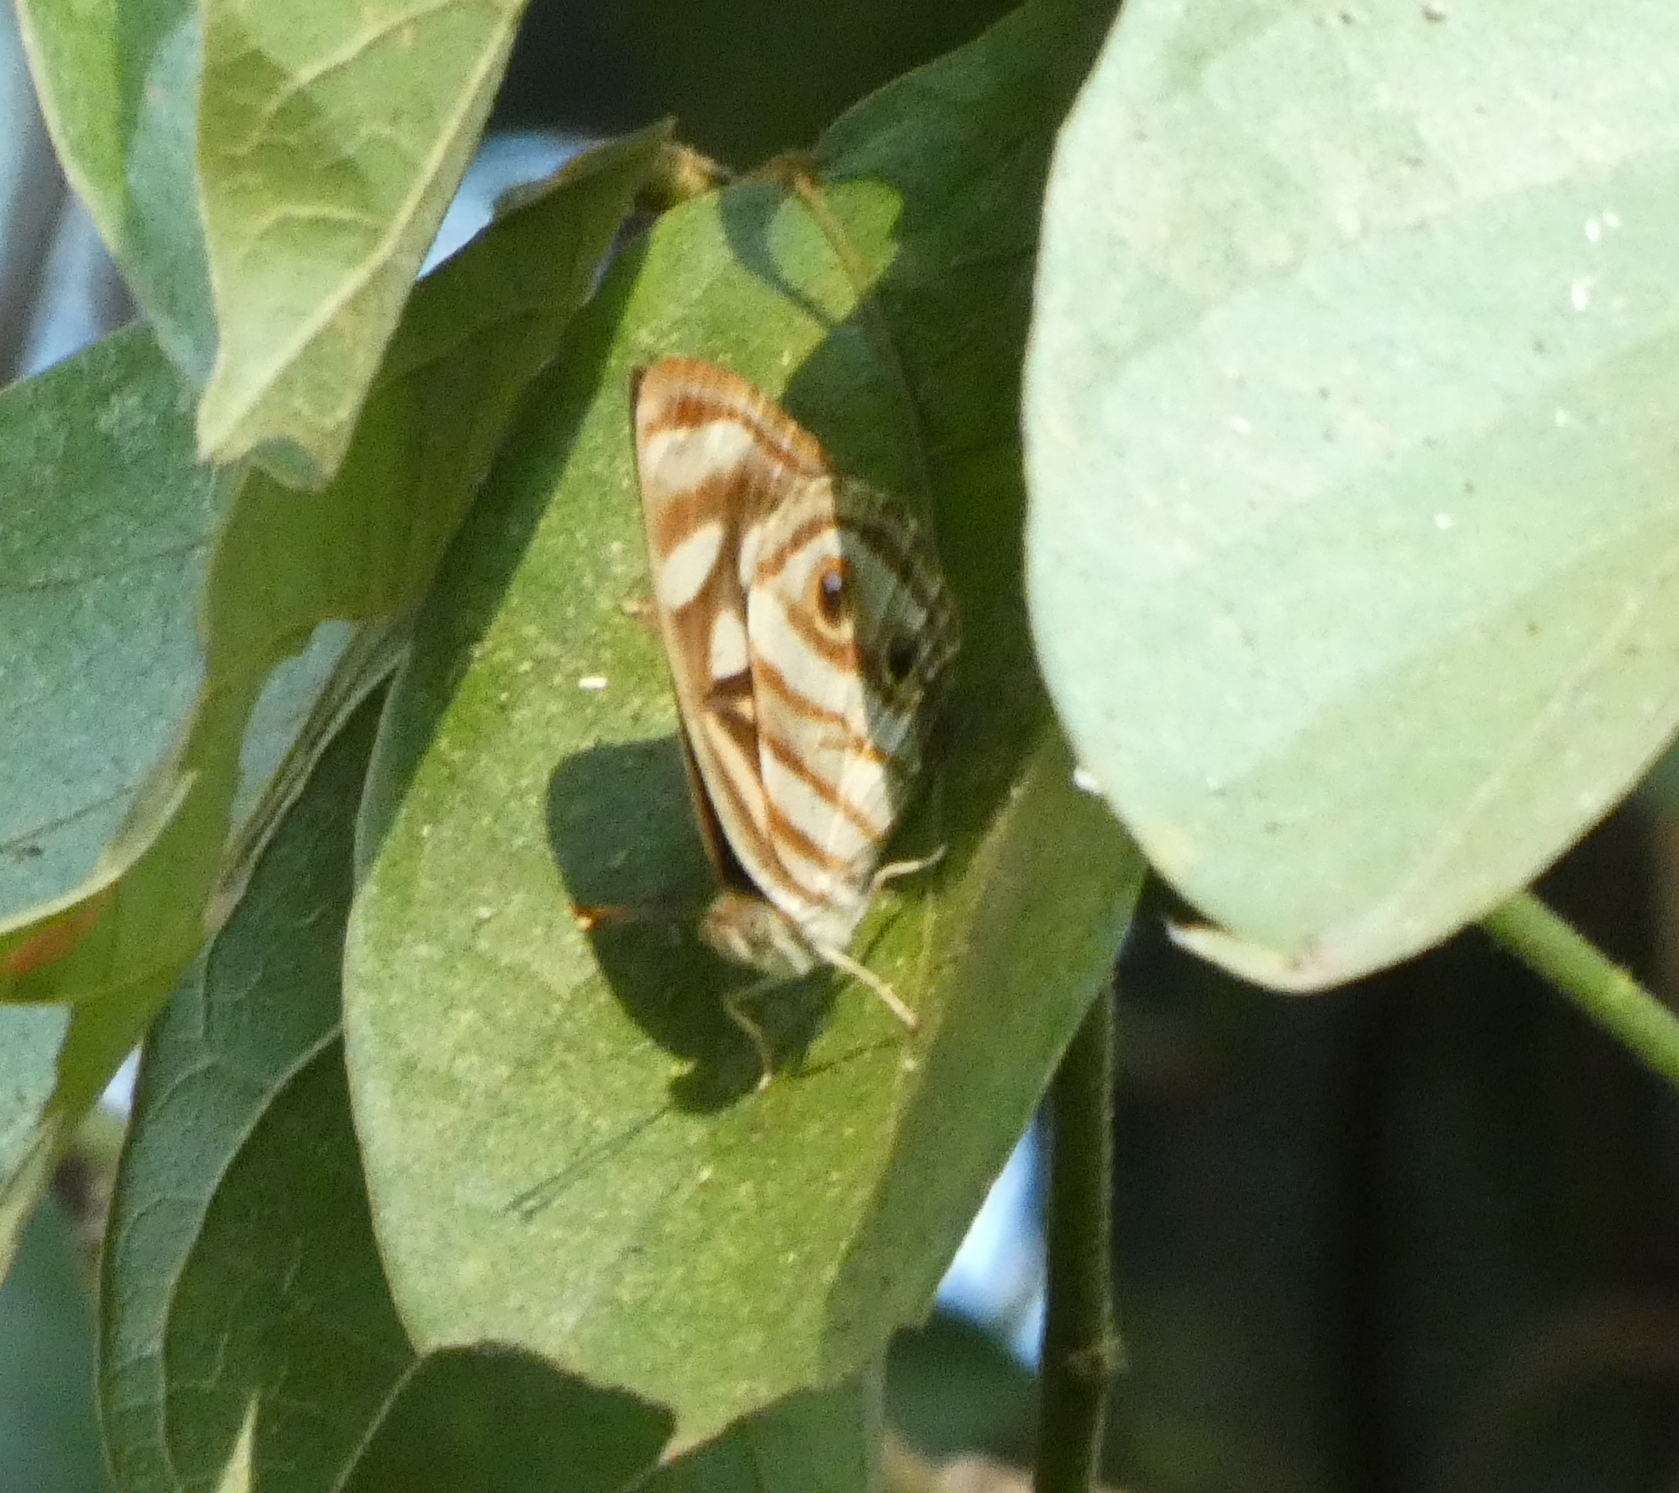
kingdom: Animalia
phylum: Arthropoda
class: Insecta
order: Lepidoptera
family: Nymphalidae
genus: Dynamine
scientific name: Dynamine mylitta
